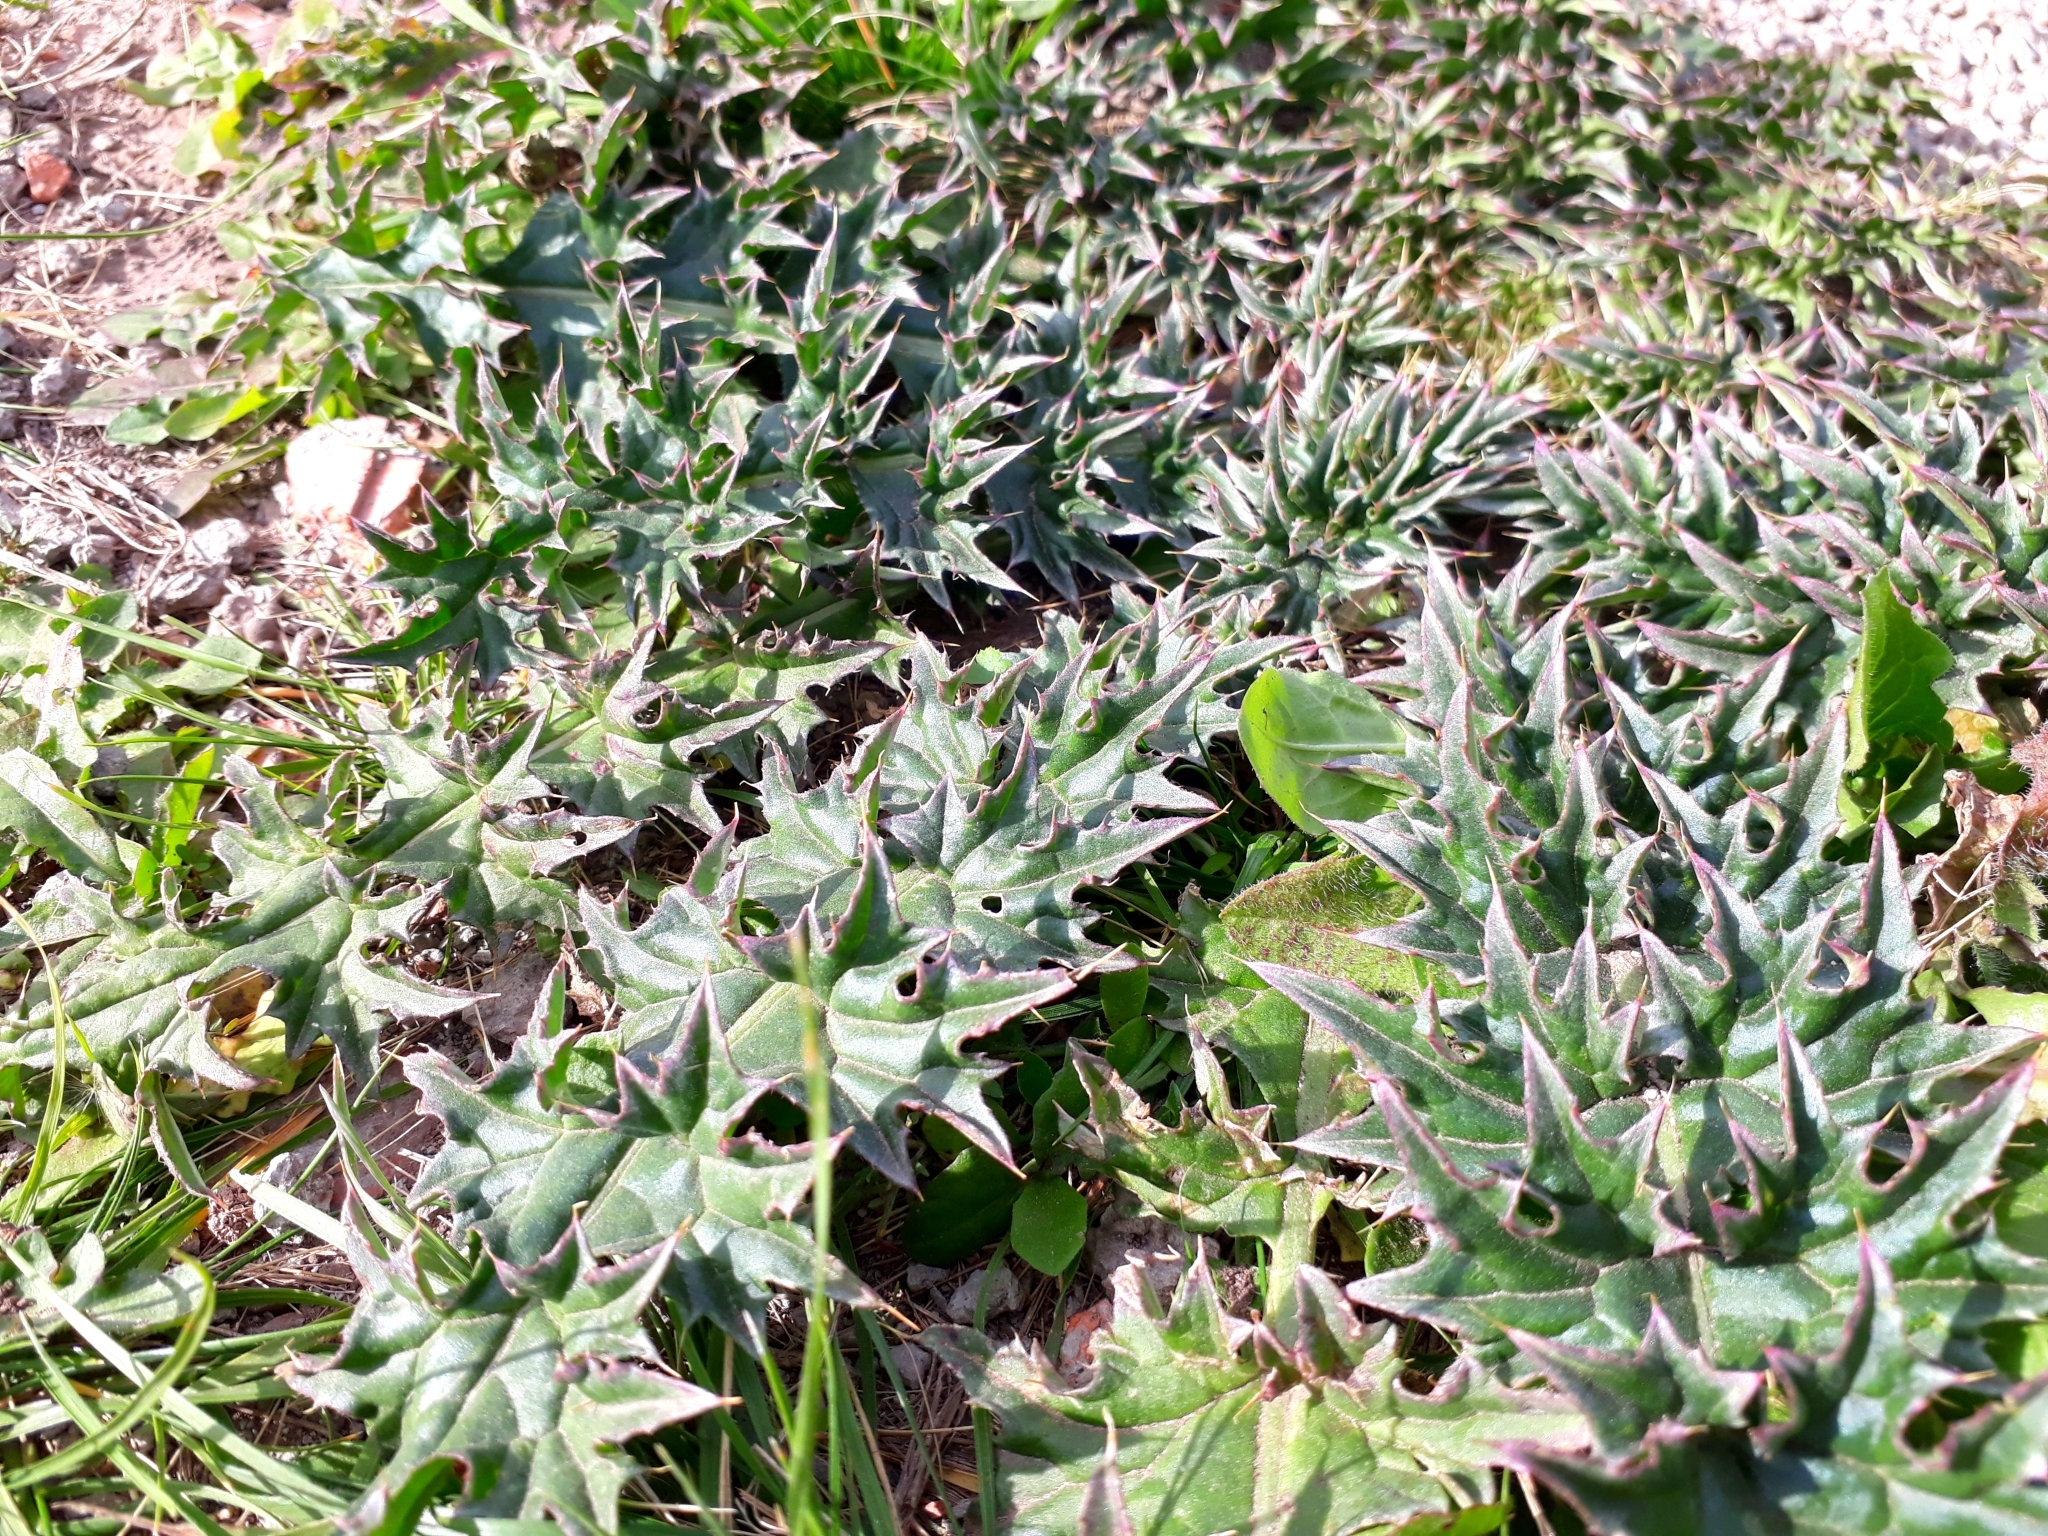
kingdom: Plantae
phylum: Tracheophyta
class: Magnoliopsida
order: Asterales
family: Asteraceae
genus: Carduus
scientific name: Carduus acanthoides
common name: Plumeless thistle
